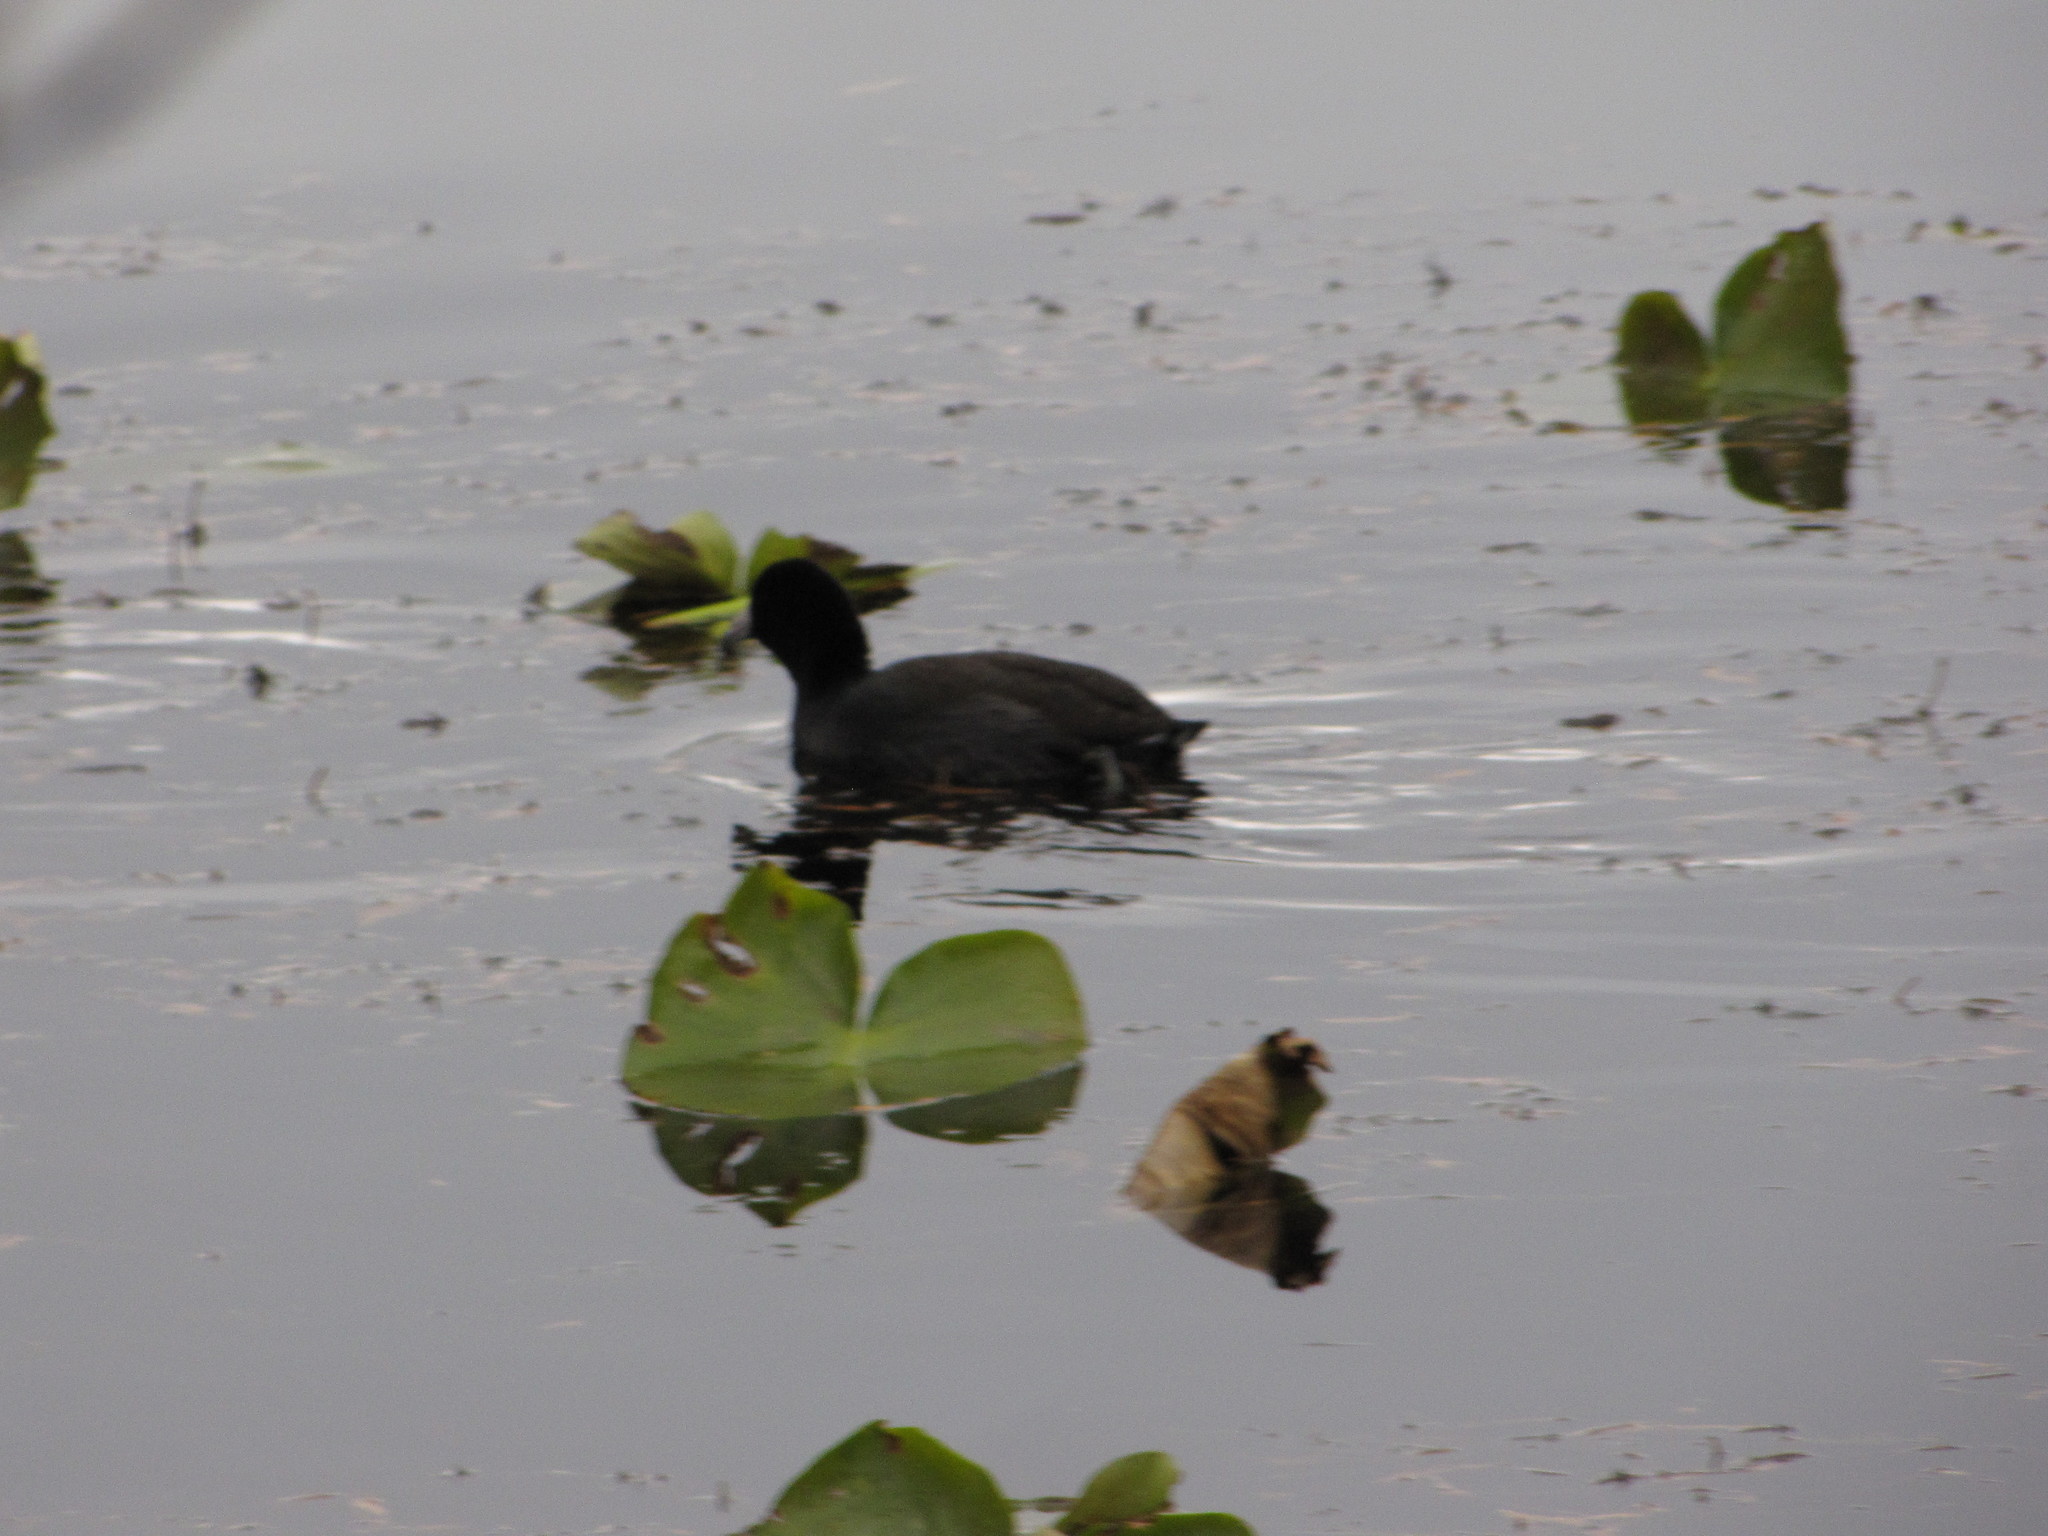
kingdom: Animalia
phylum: Chordata
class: Aves
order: Gruiformes
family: Rallidae
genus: Fulica
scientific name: Fulica americana
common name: American coot
